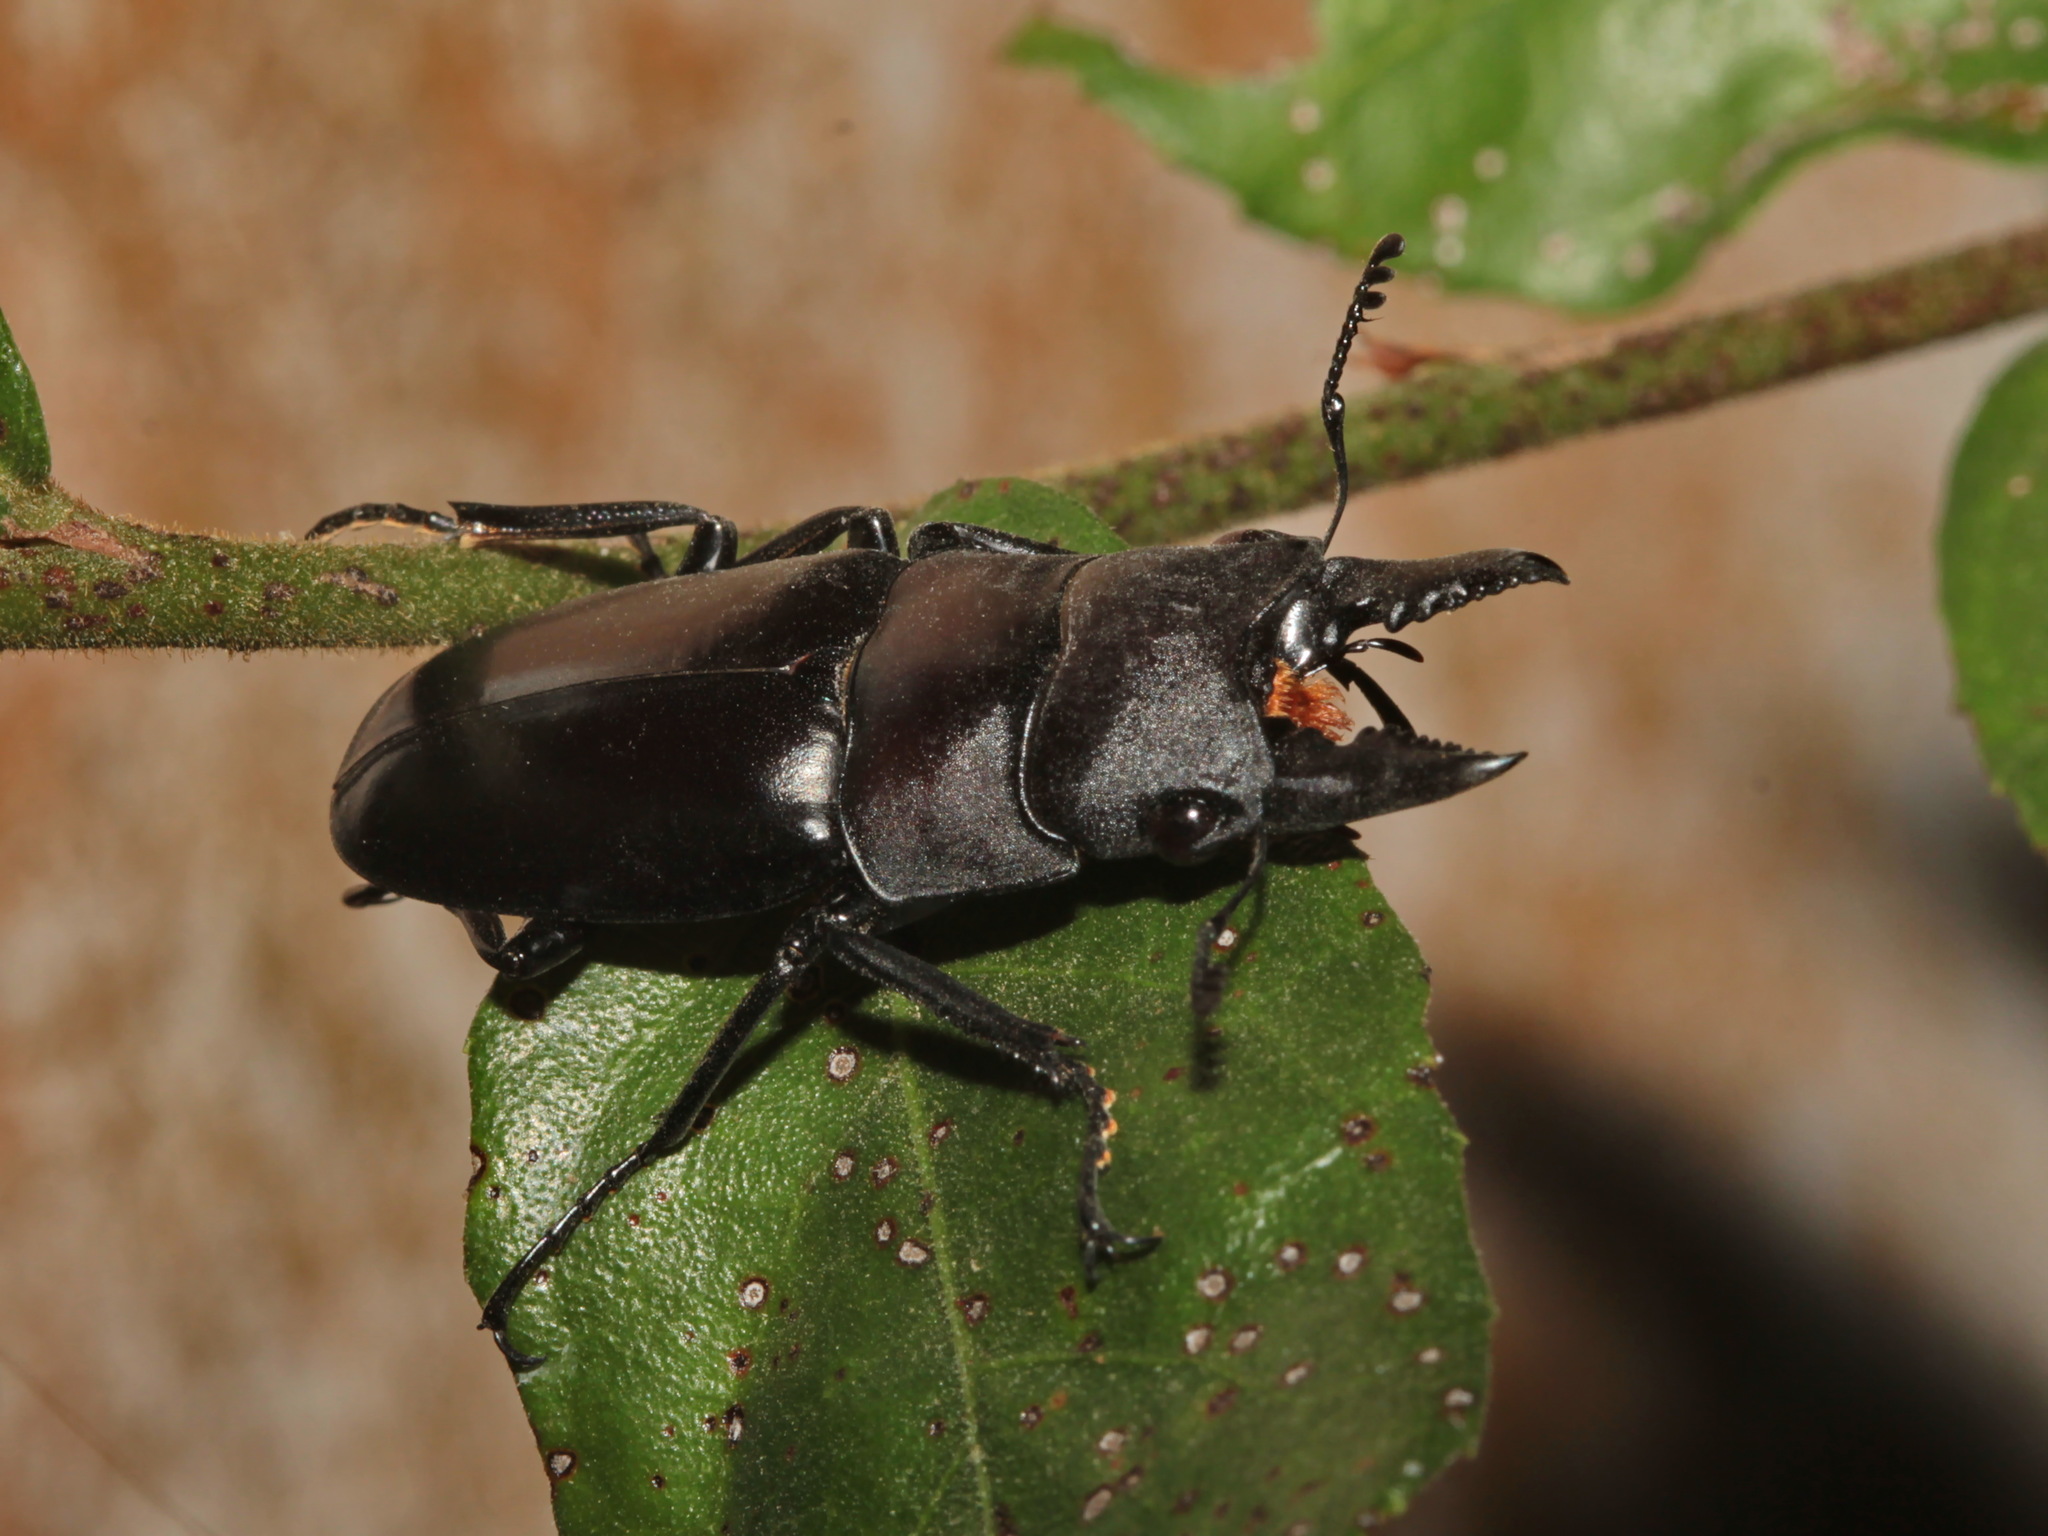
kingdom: Animalia
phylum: Arthropoda
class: Insecta
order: Coleoptera
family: Lucanidae
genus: Prosopocoilus
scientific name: Prosopocoilus buddha
